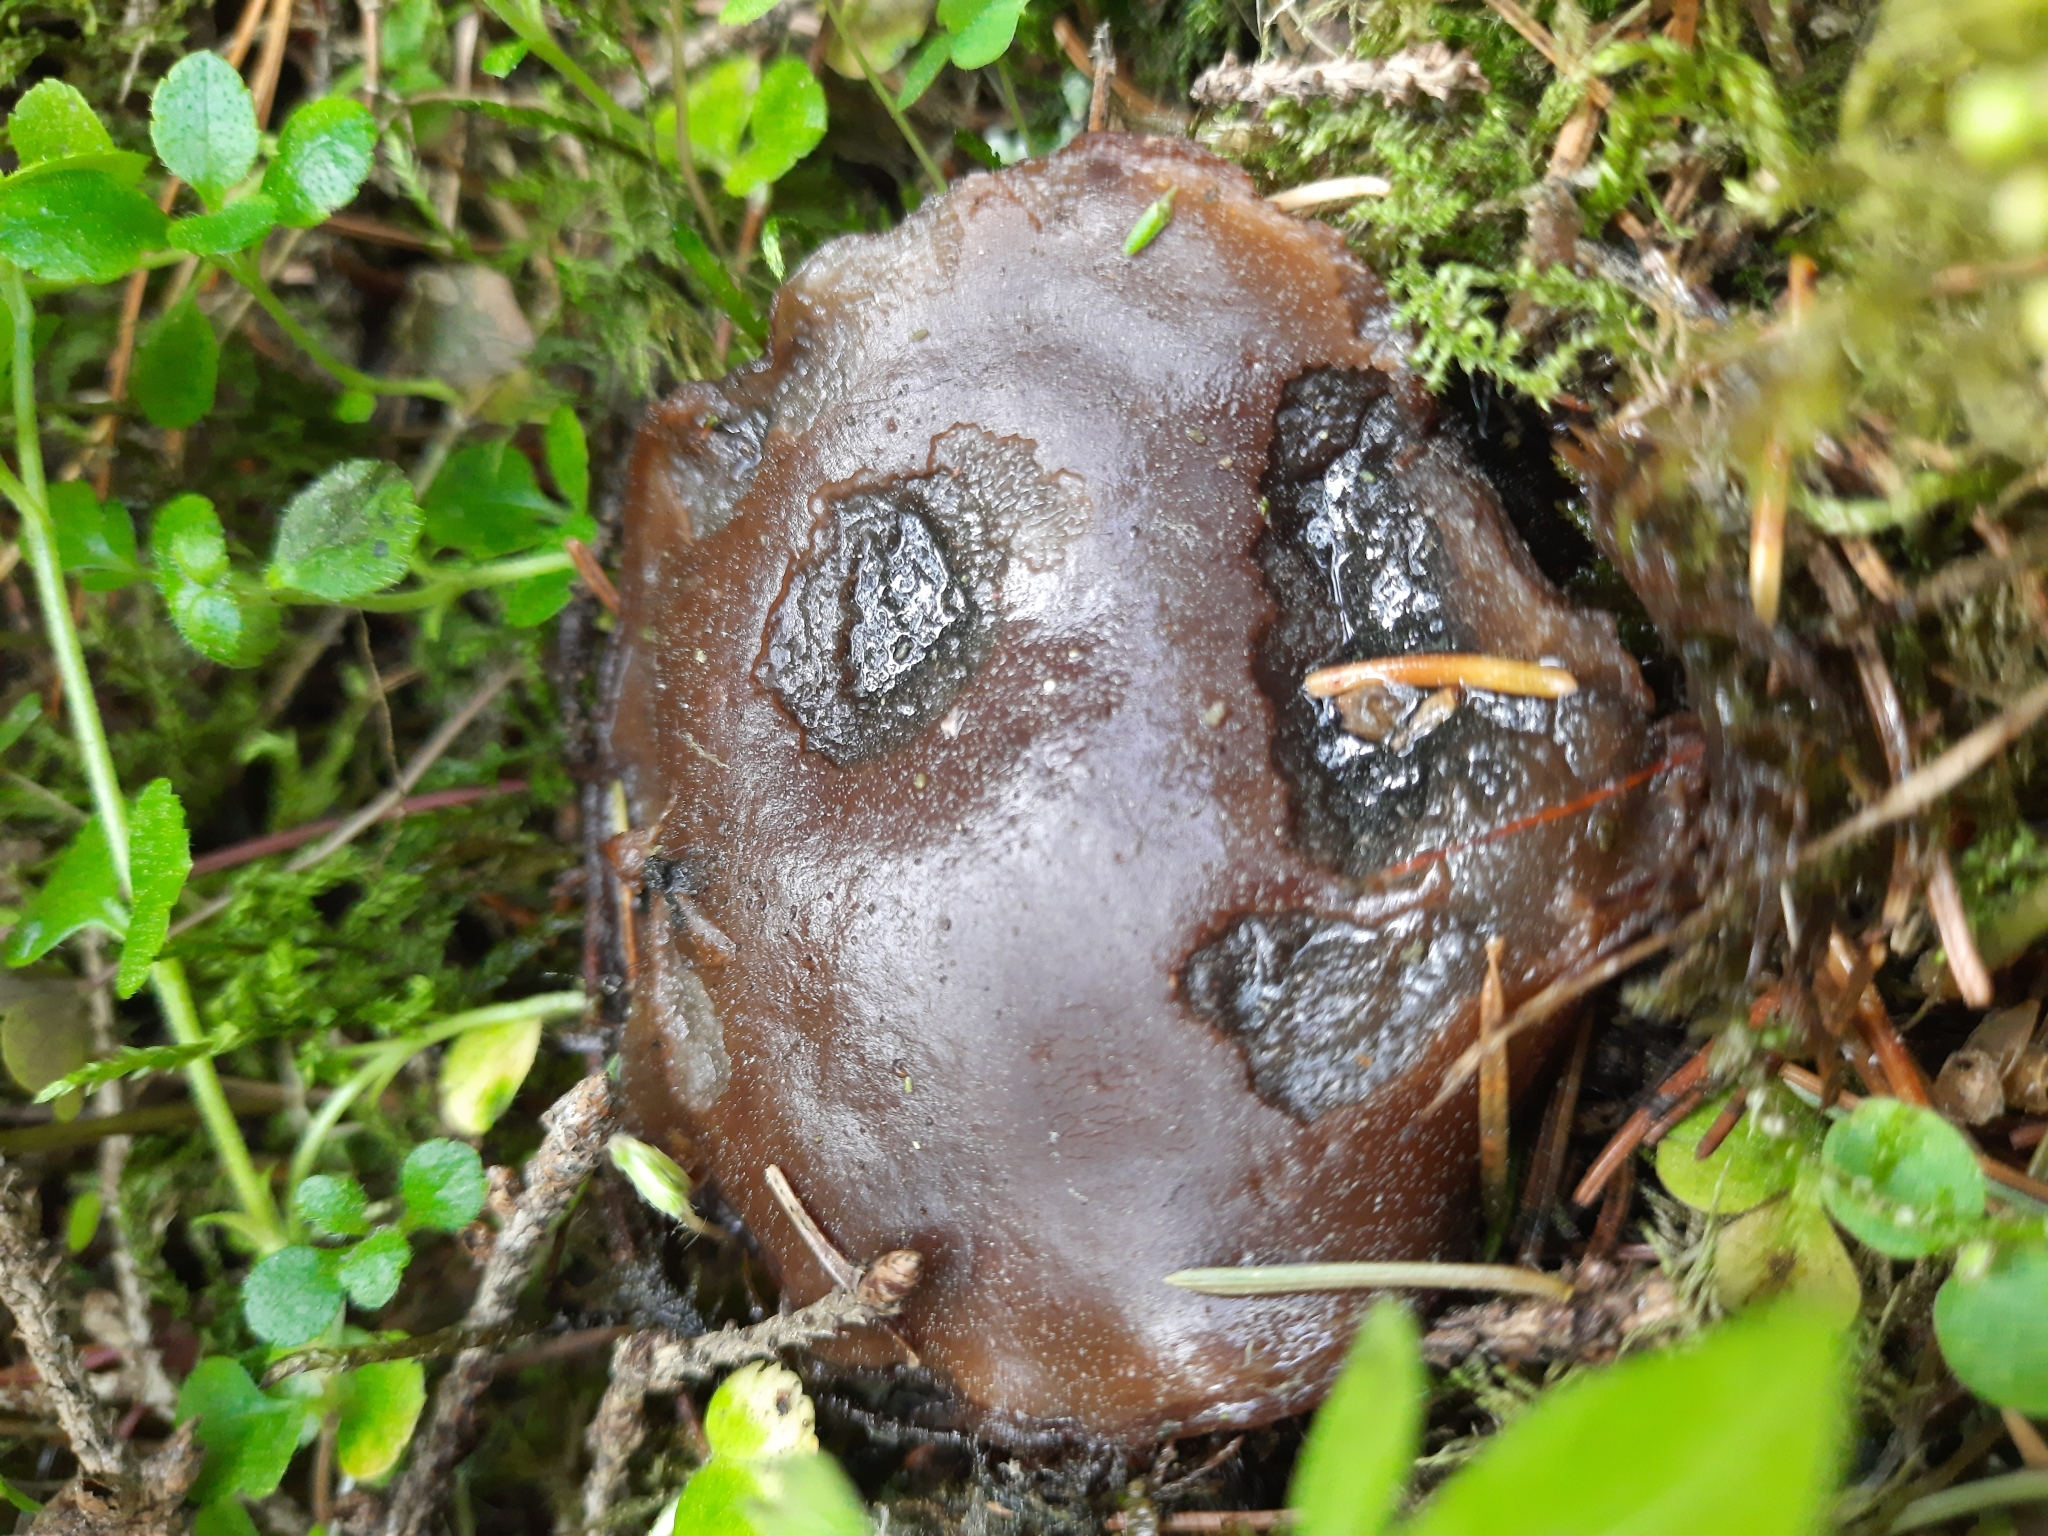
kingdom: Fungi
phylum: Ascomycota
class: Pezizomycetes
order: Pezizales
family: Sarcosomataceae
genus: Sarcosoma
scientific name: Sarcosoma globosum
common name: Charred-pancake cup
